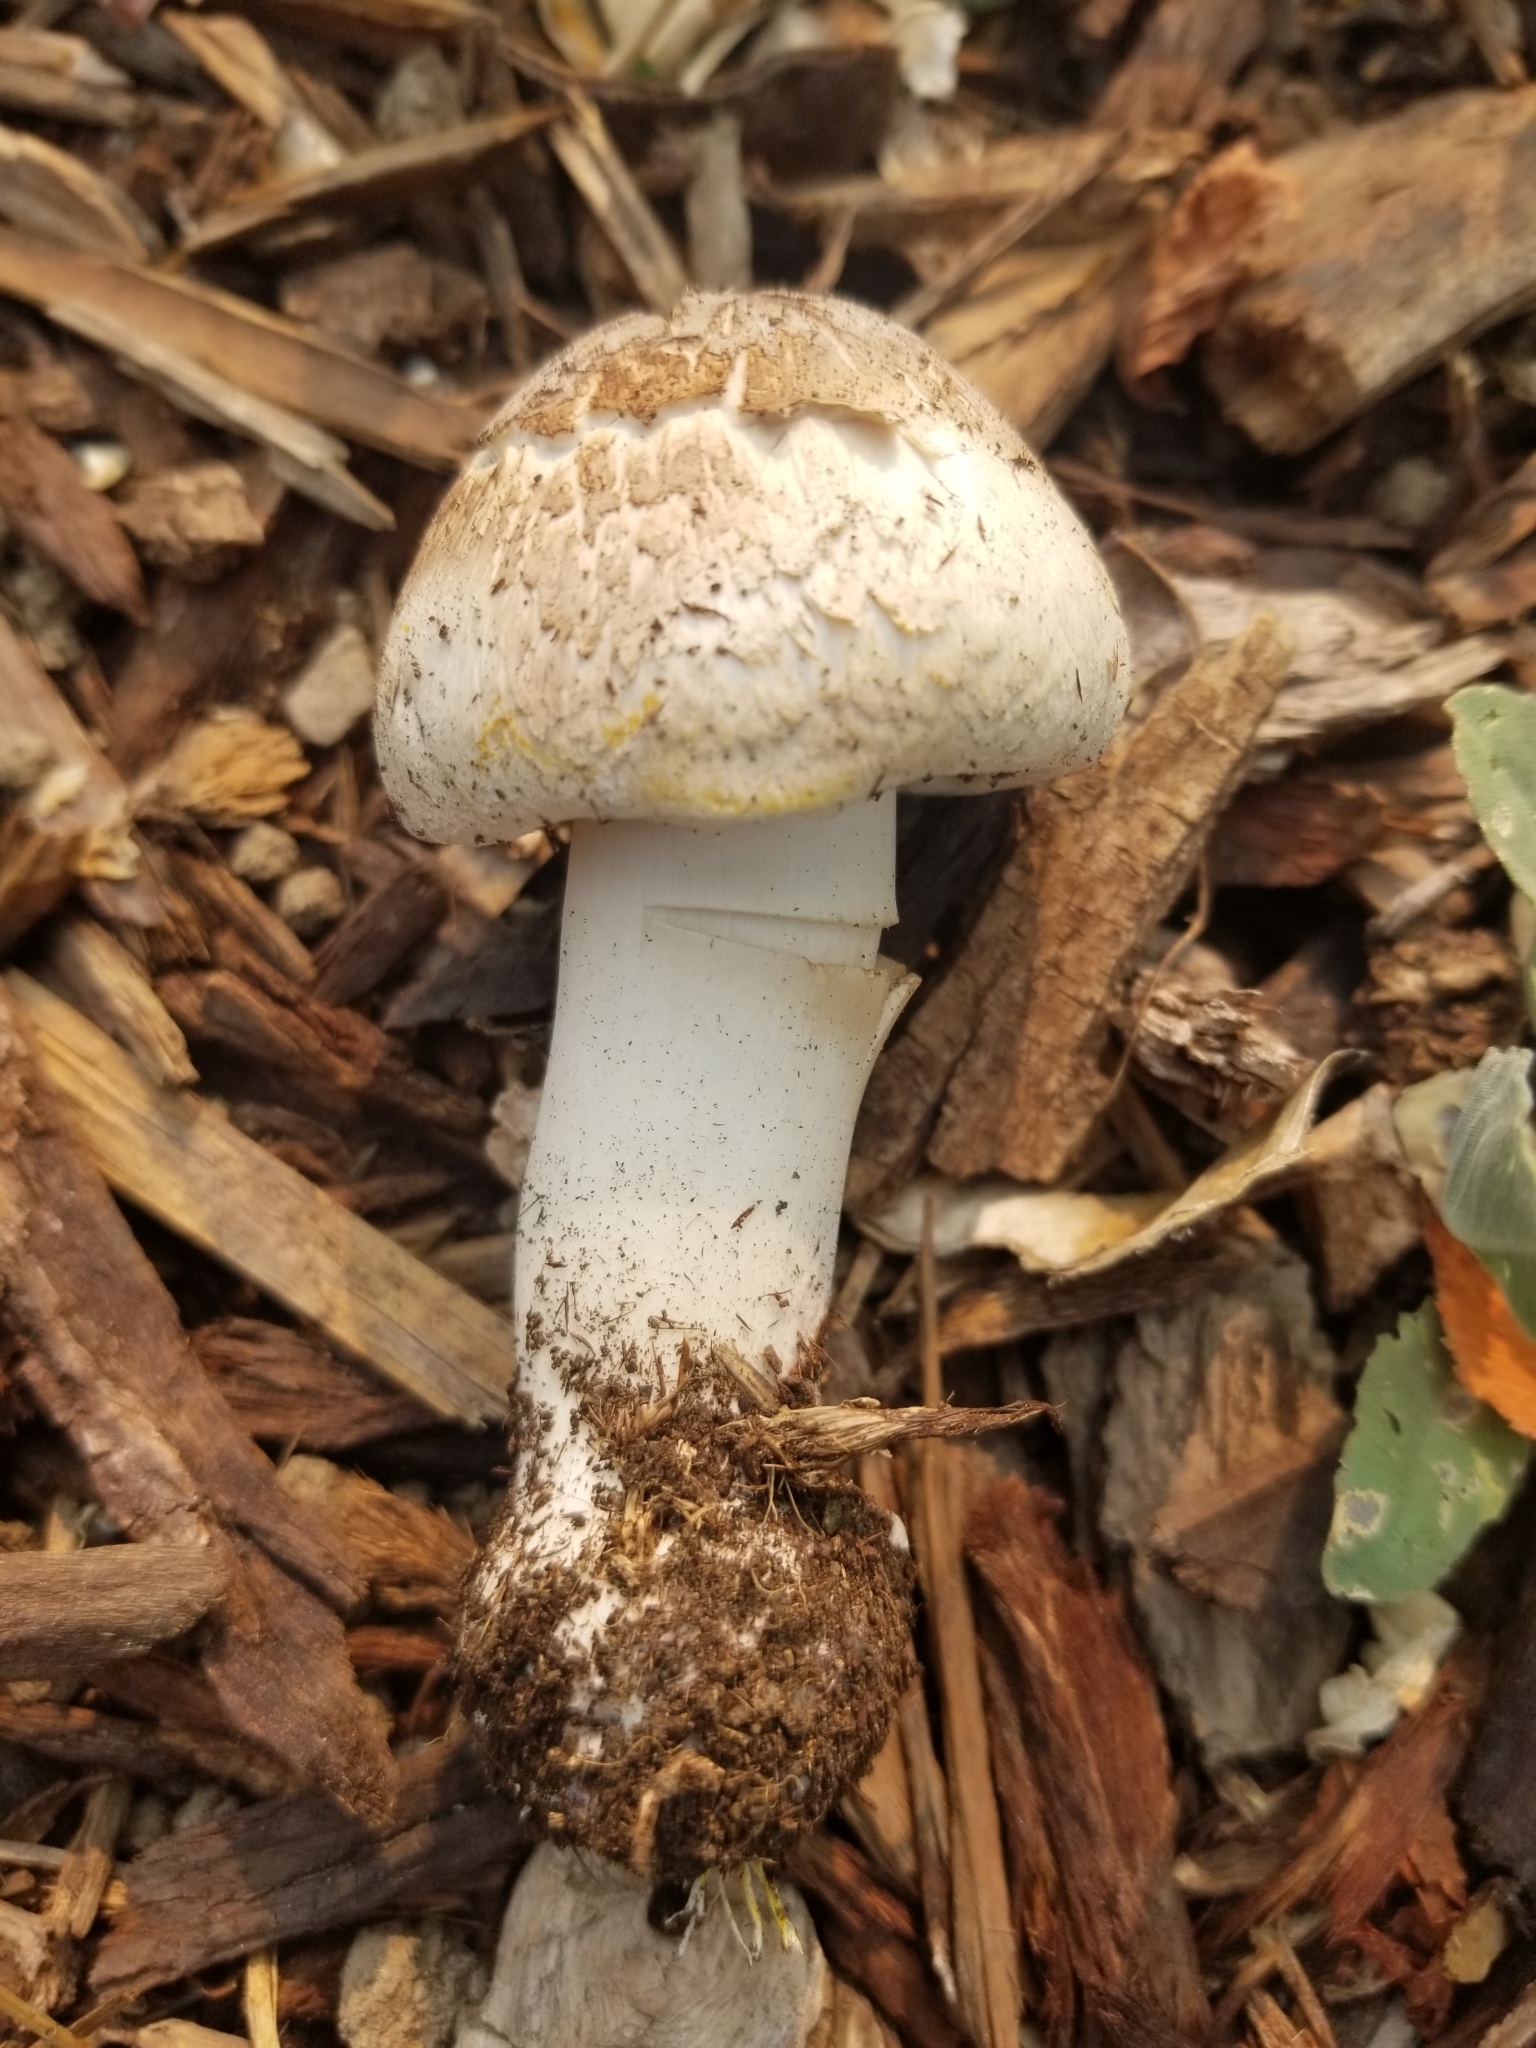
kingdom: Fungi
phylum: Basidiomycota
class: Agaricomycetes
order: Agaricales
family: Agaricaceae
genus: Agaricus
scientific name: Agaricus xanthodermus
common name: Yellow stainer
